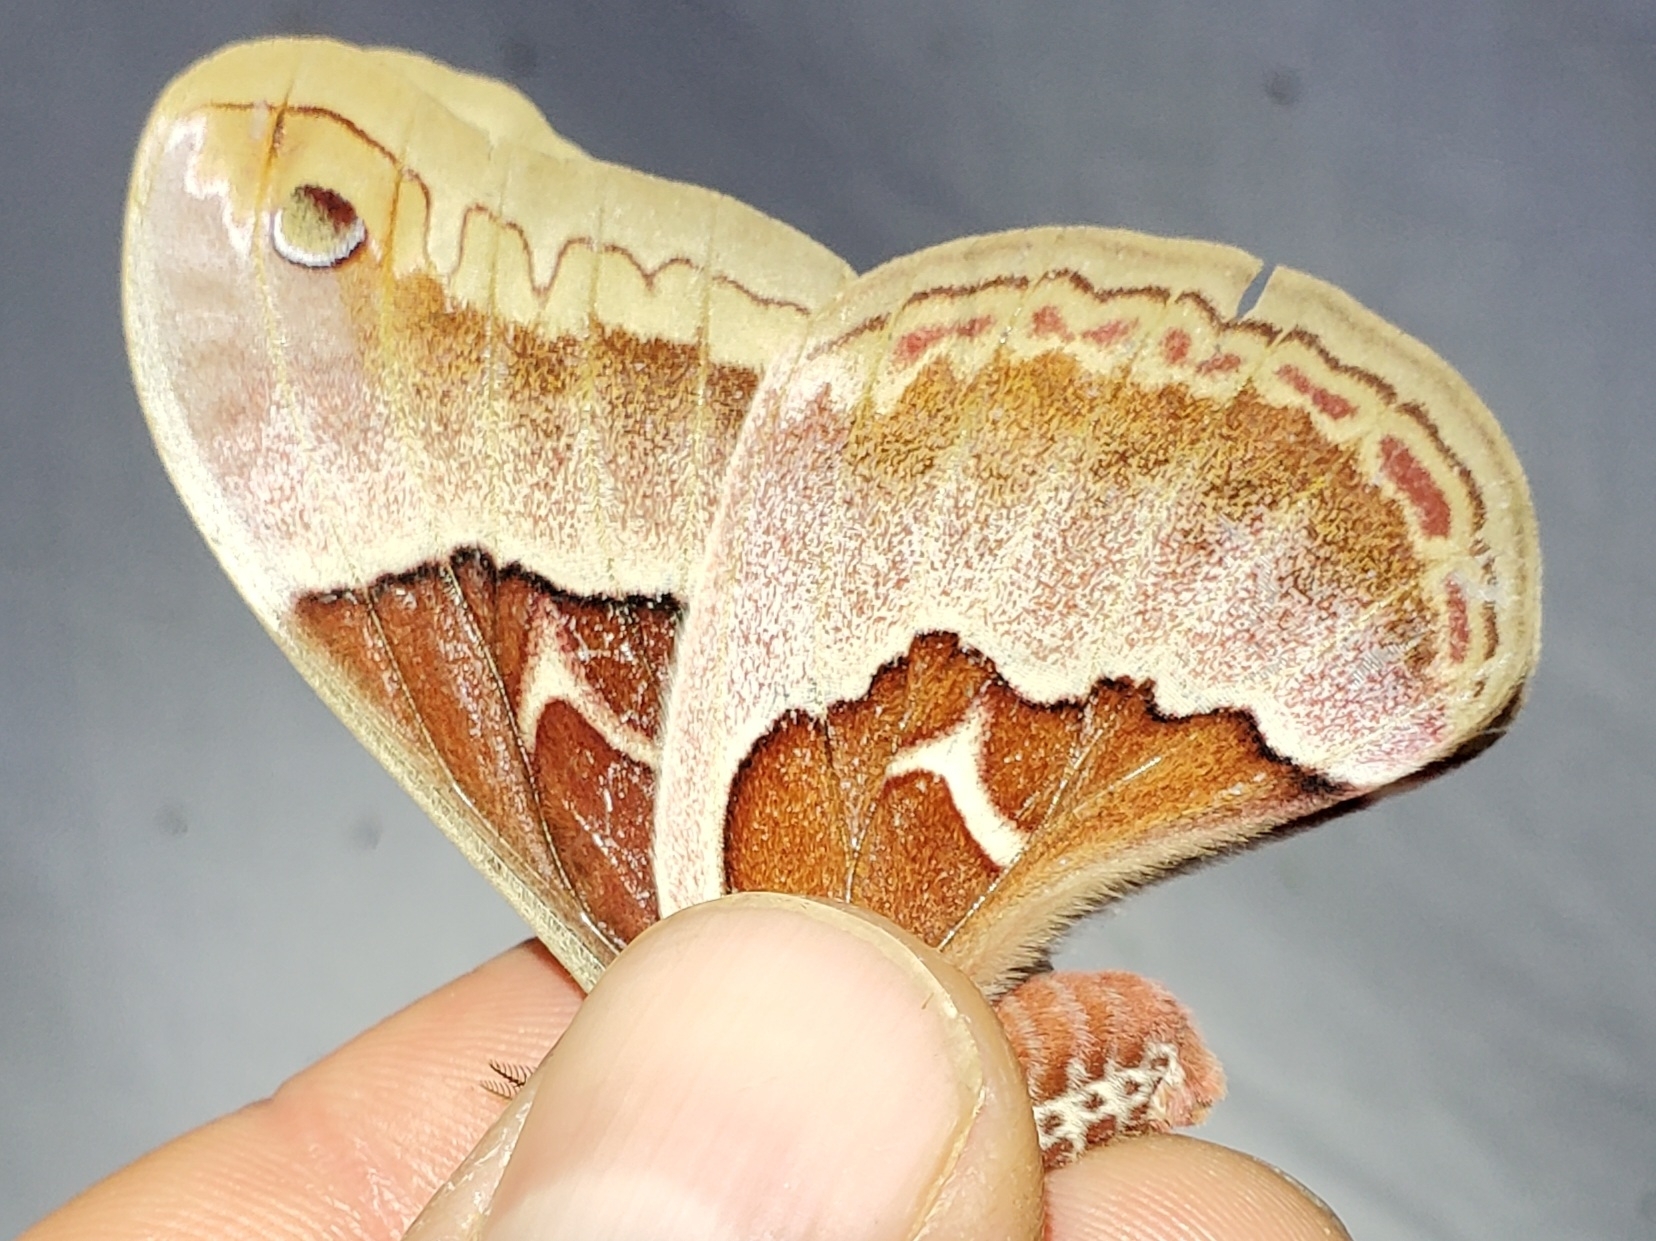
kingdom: Animalia
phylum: Arthropoda
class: Insecta
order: Lepidoptera
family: Saturniidae
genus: Callosamia
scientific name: Callosamia promethea
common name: Promethea silkmoth
